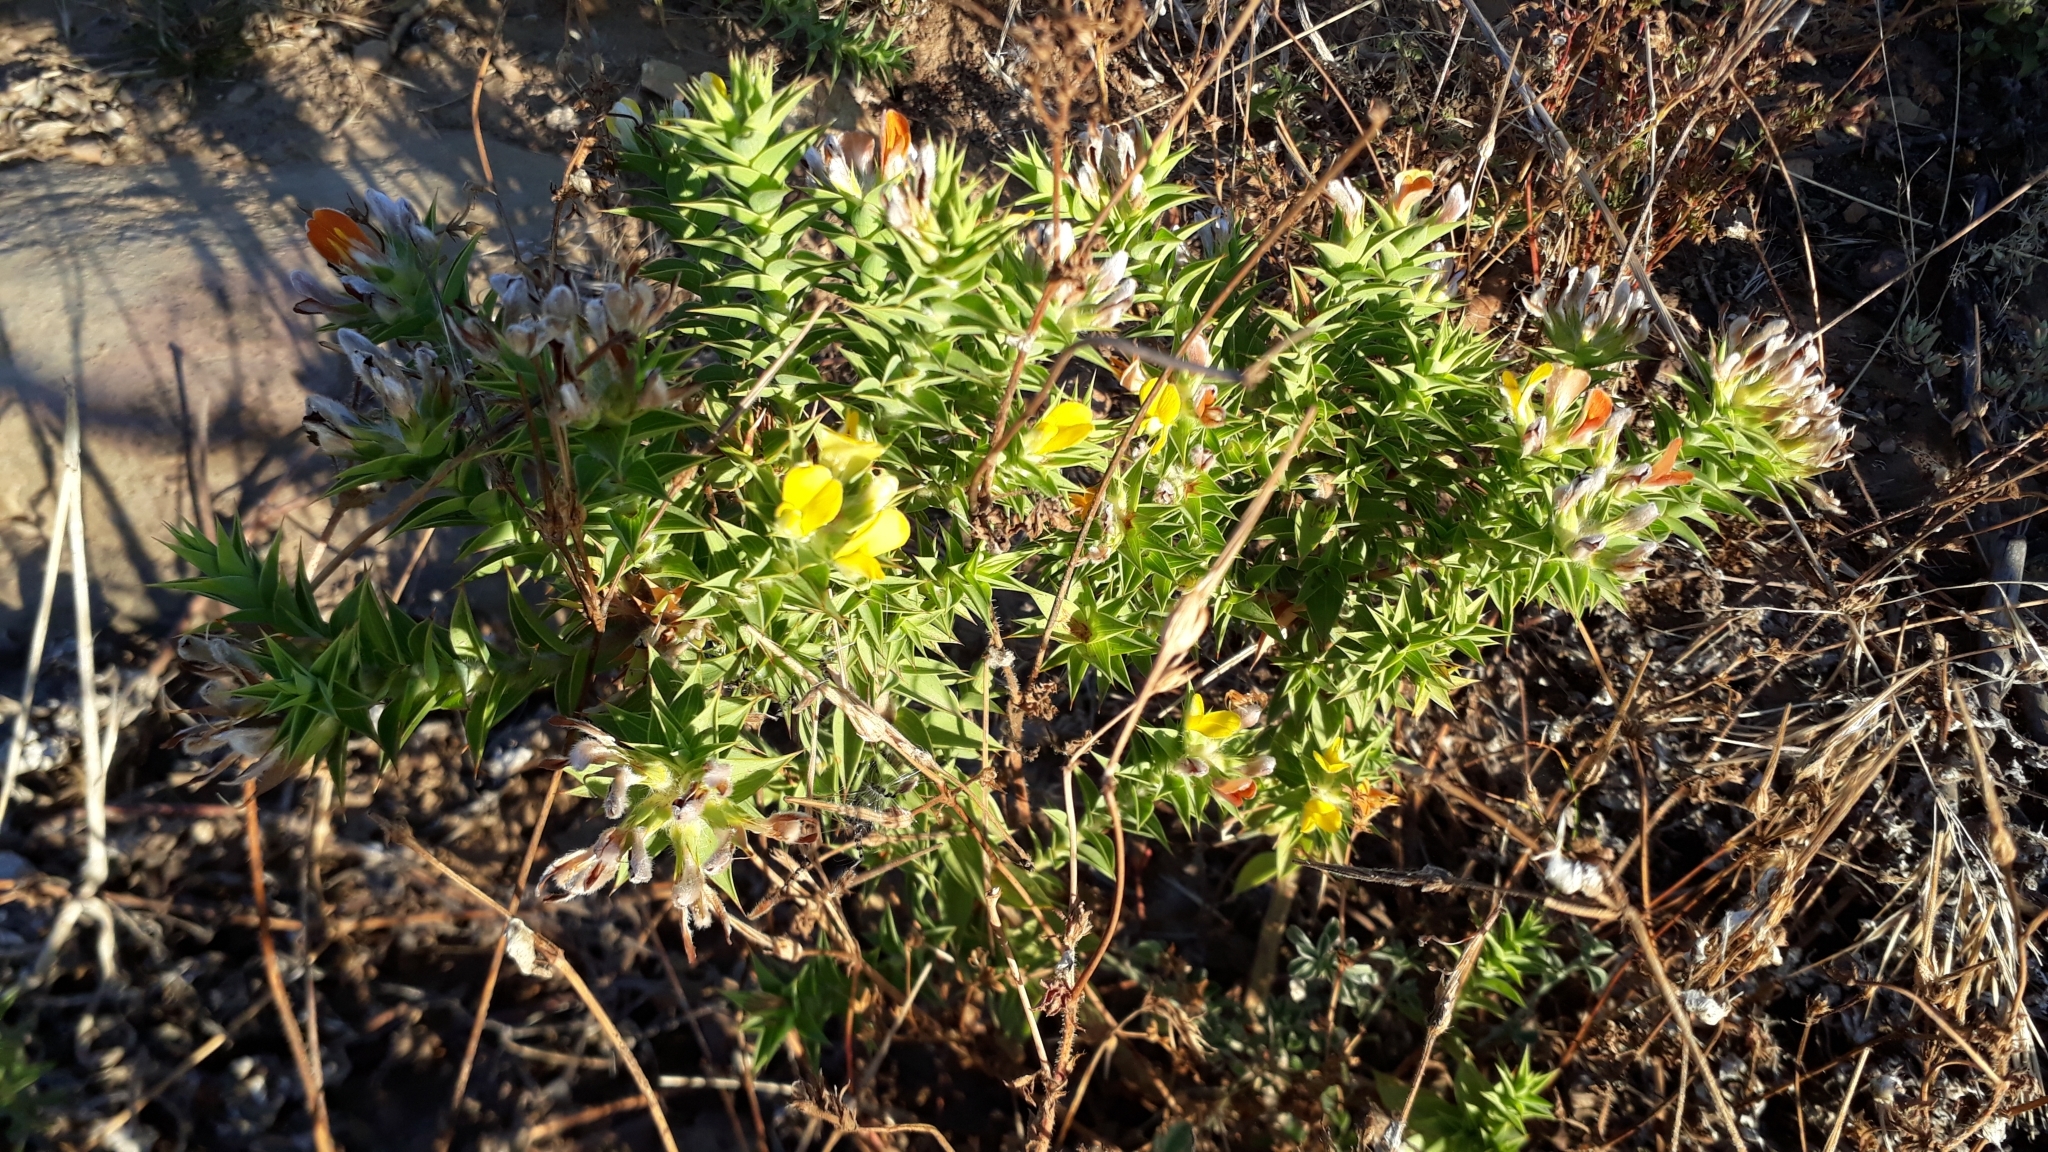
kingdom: Plantae
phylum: Tracheophyta
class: Magnoliopsida
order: Fabales
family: Fabaceae
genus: Aspalathus
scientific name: Aspalathus cordata
